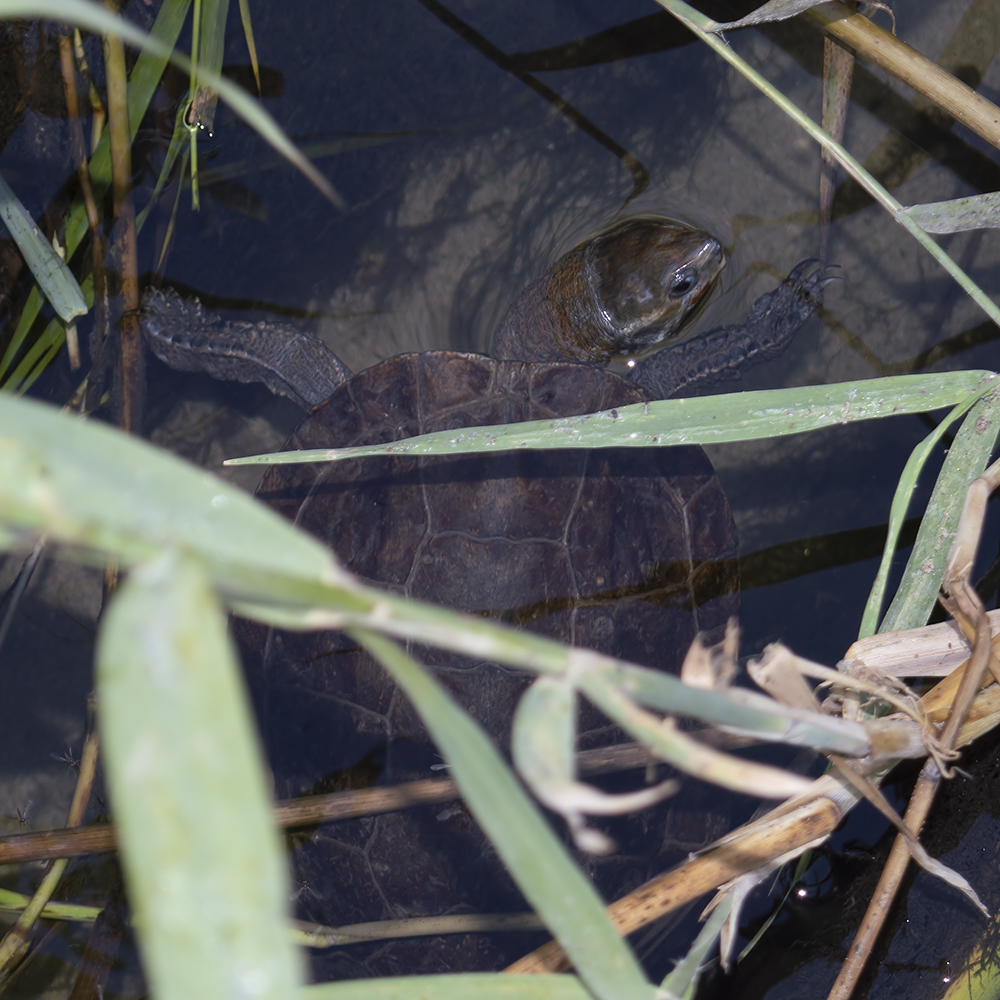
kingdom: Animalia
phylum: Chordata
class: Testudines
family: Geoemydidae
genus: Mauremys
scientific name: Mauremys rivulata
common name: Western caspian turtle
